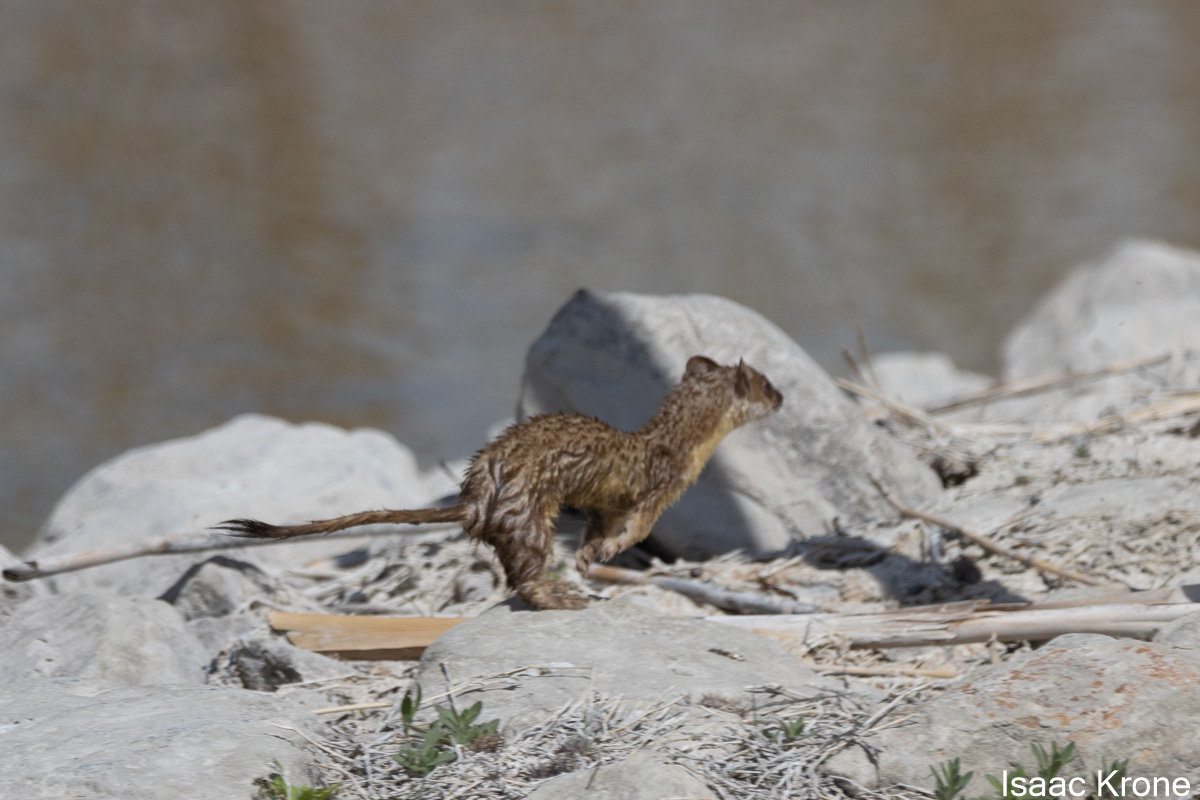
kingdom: Animalia
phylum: Chordata
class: Mammalia
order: Carnivora
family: Mustelidae
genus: Mustela
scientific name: Mustela
